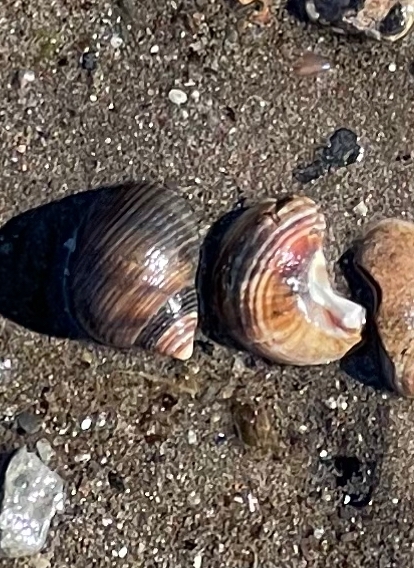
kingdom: Animalia
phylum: Mollusca
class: Gastropoda
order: Littorinimorpha
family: Littorinidae
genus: Littorina
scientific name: Littorina littorea
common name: Common periwinkle
